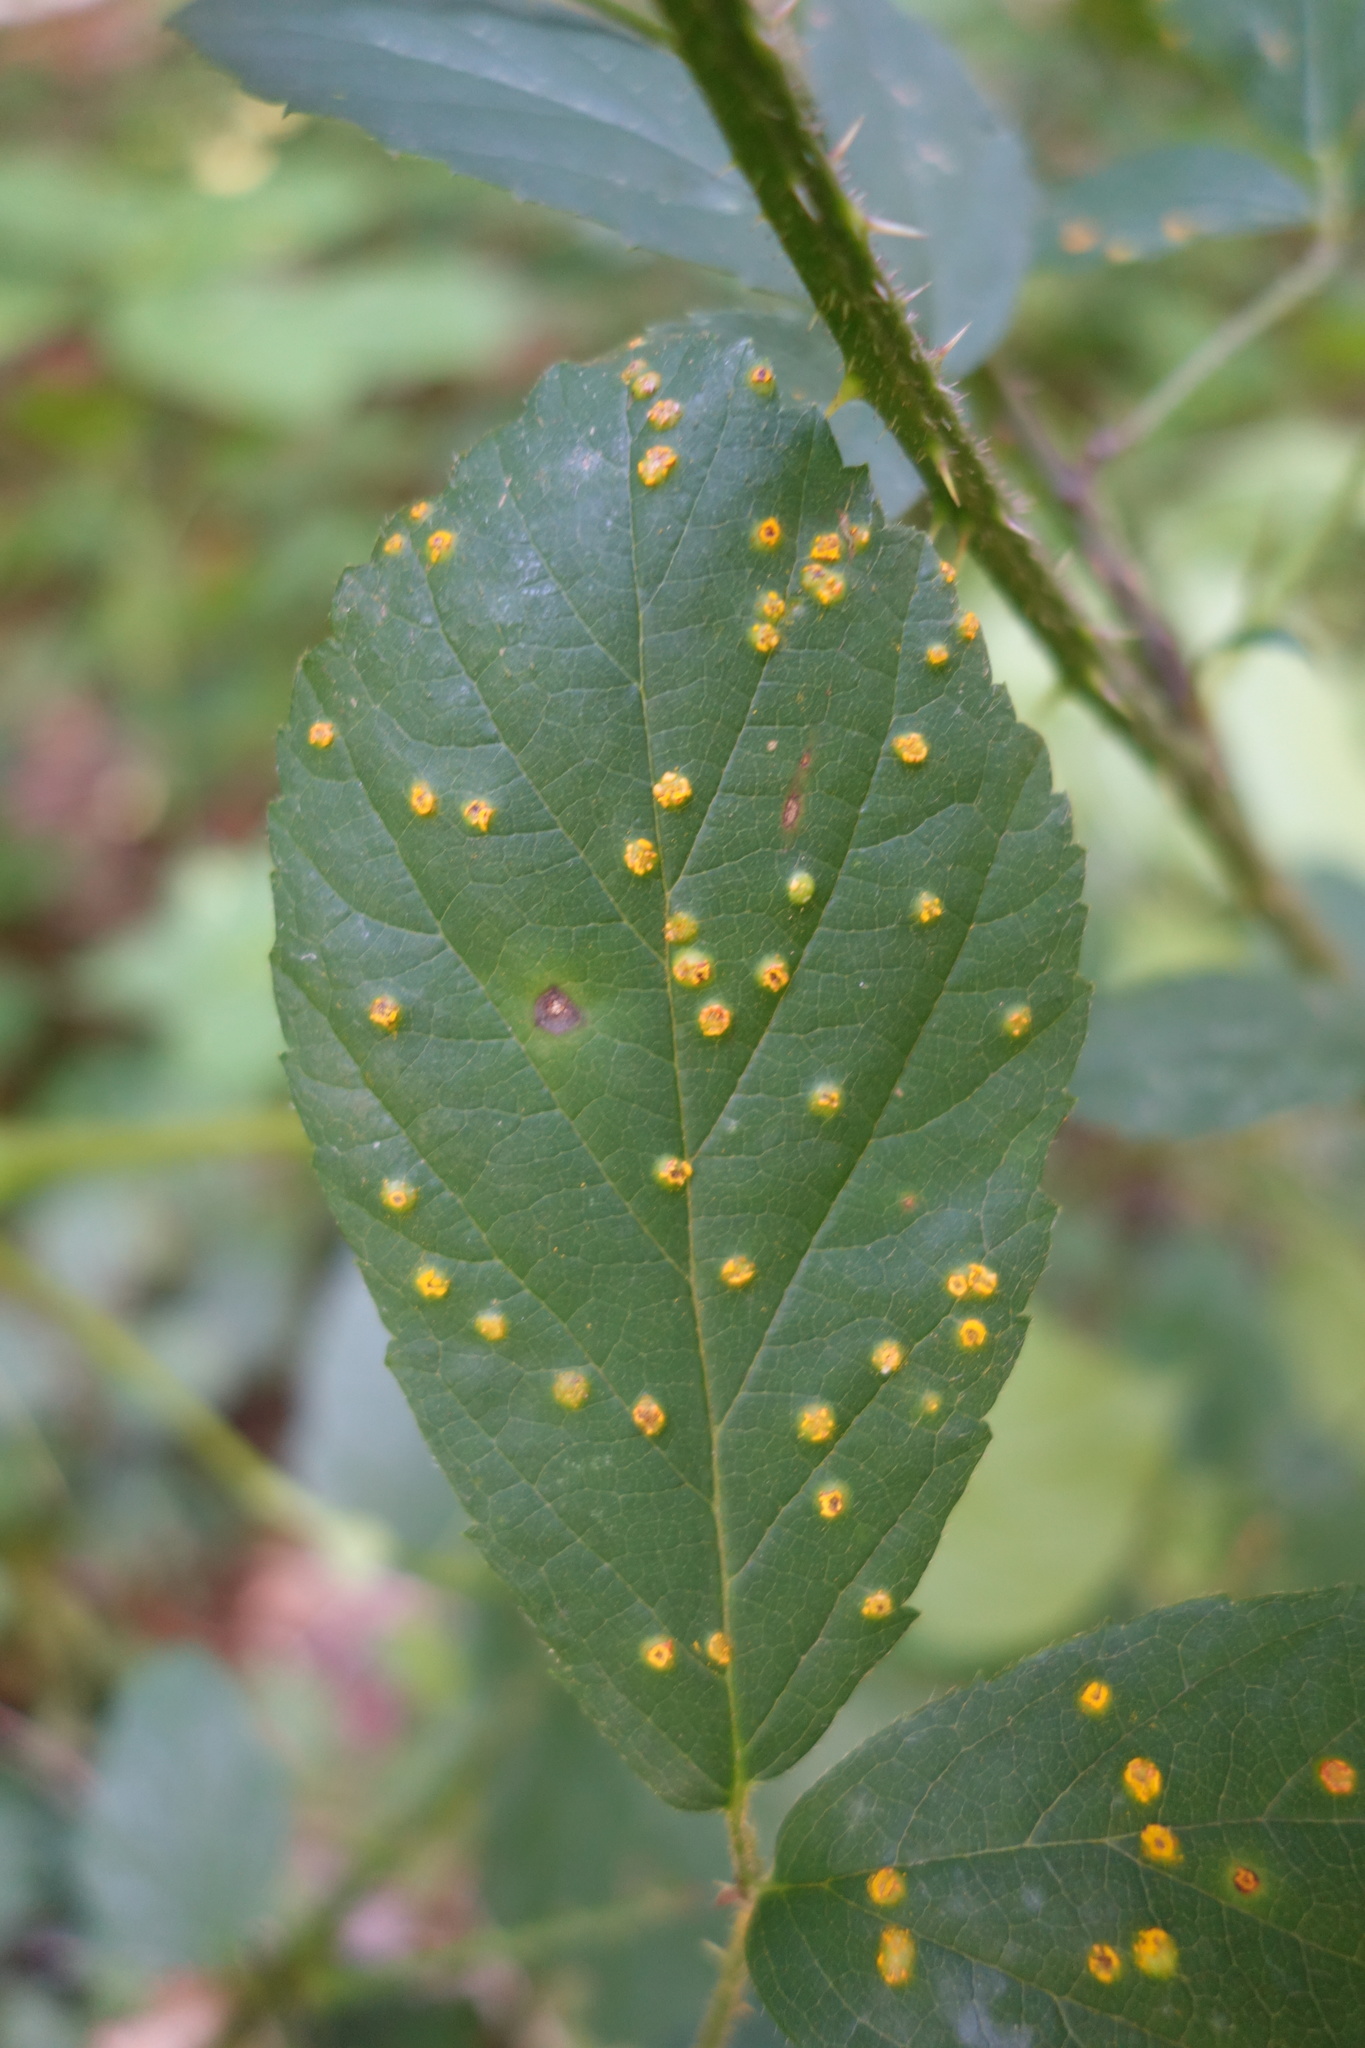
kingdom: Fungi
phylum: Basidiomycota
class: Pucciniomycetes
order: Pucciniales
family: Phragmidiaceae
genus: Kuehneola
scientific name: Kuehneola uredinis
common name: Bramble stem rust
